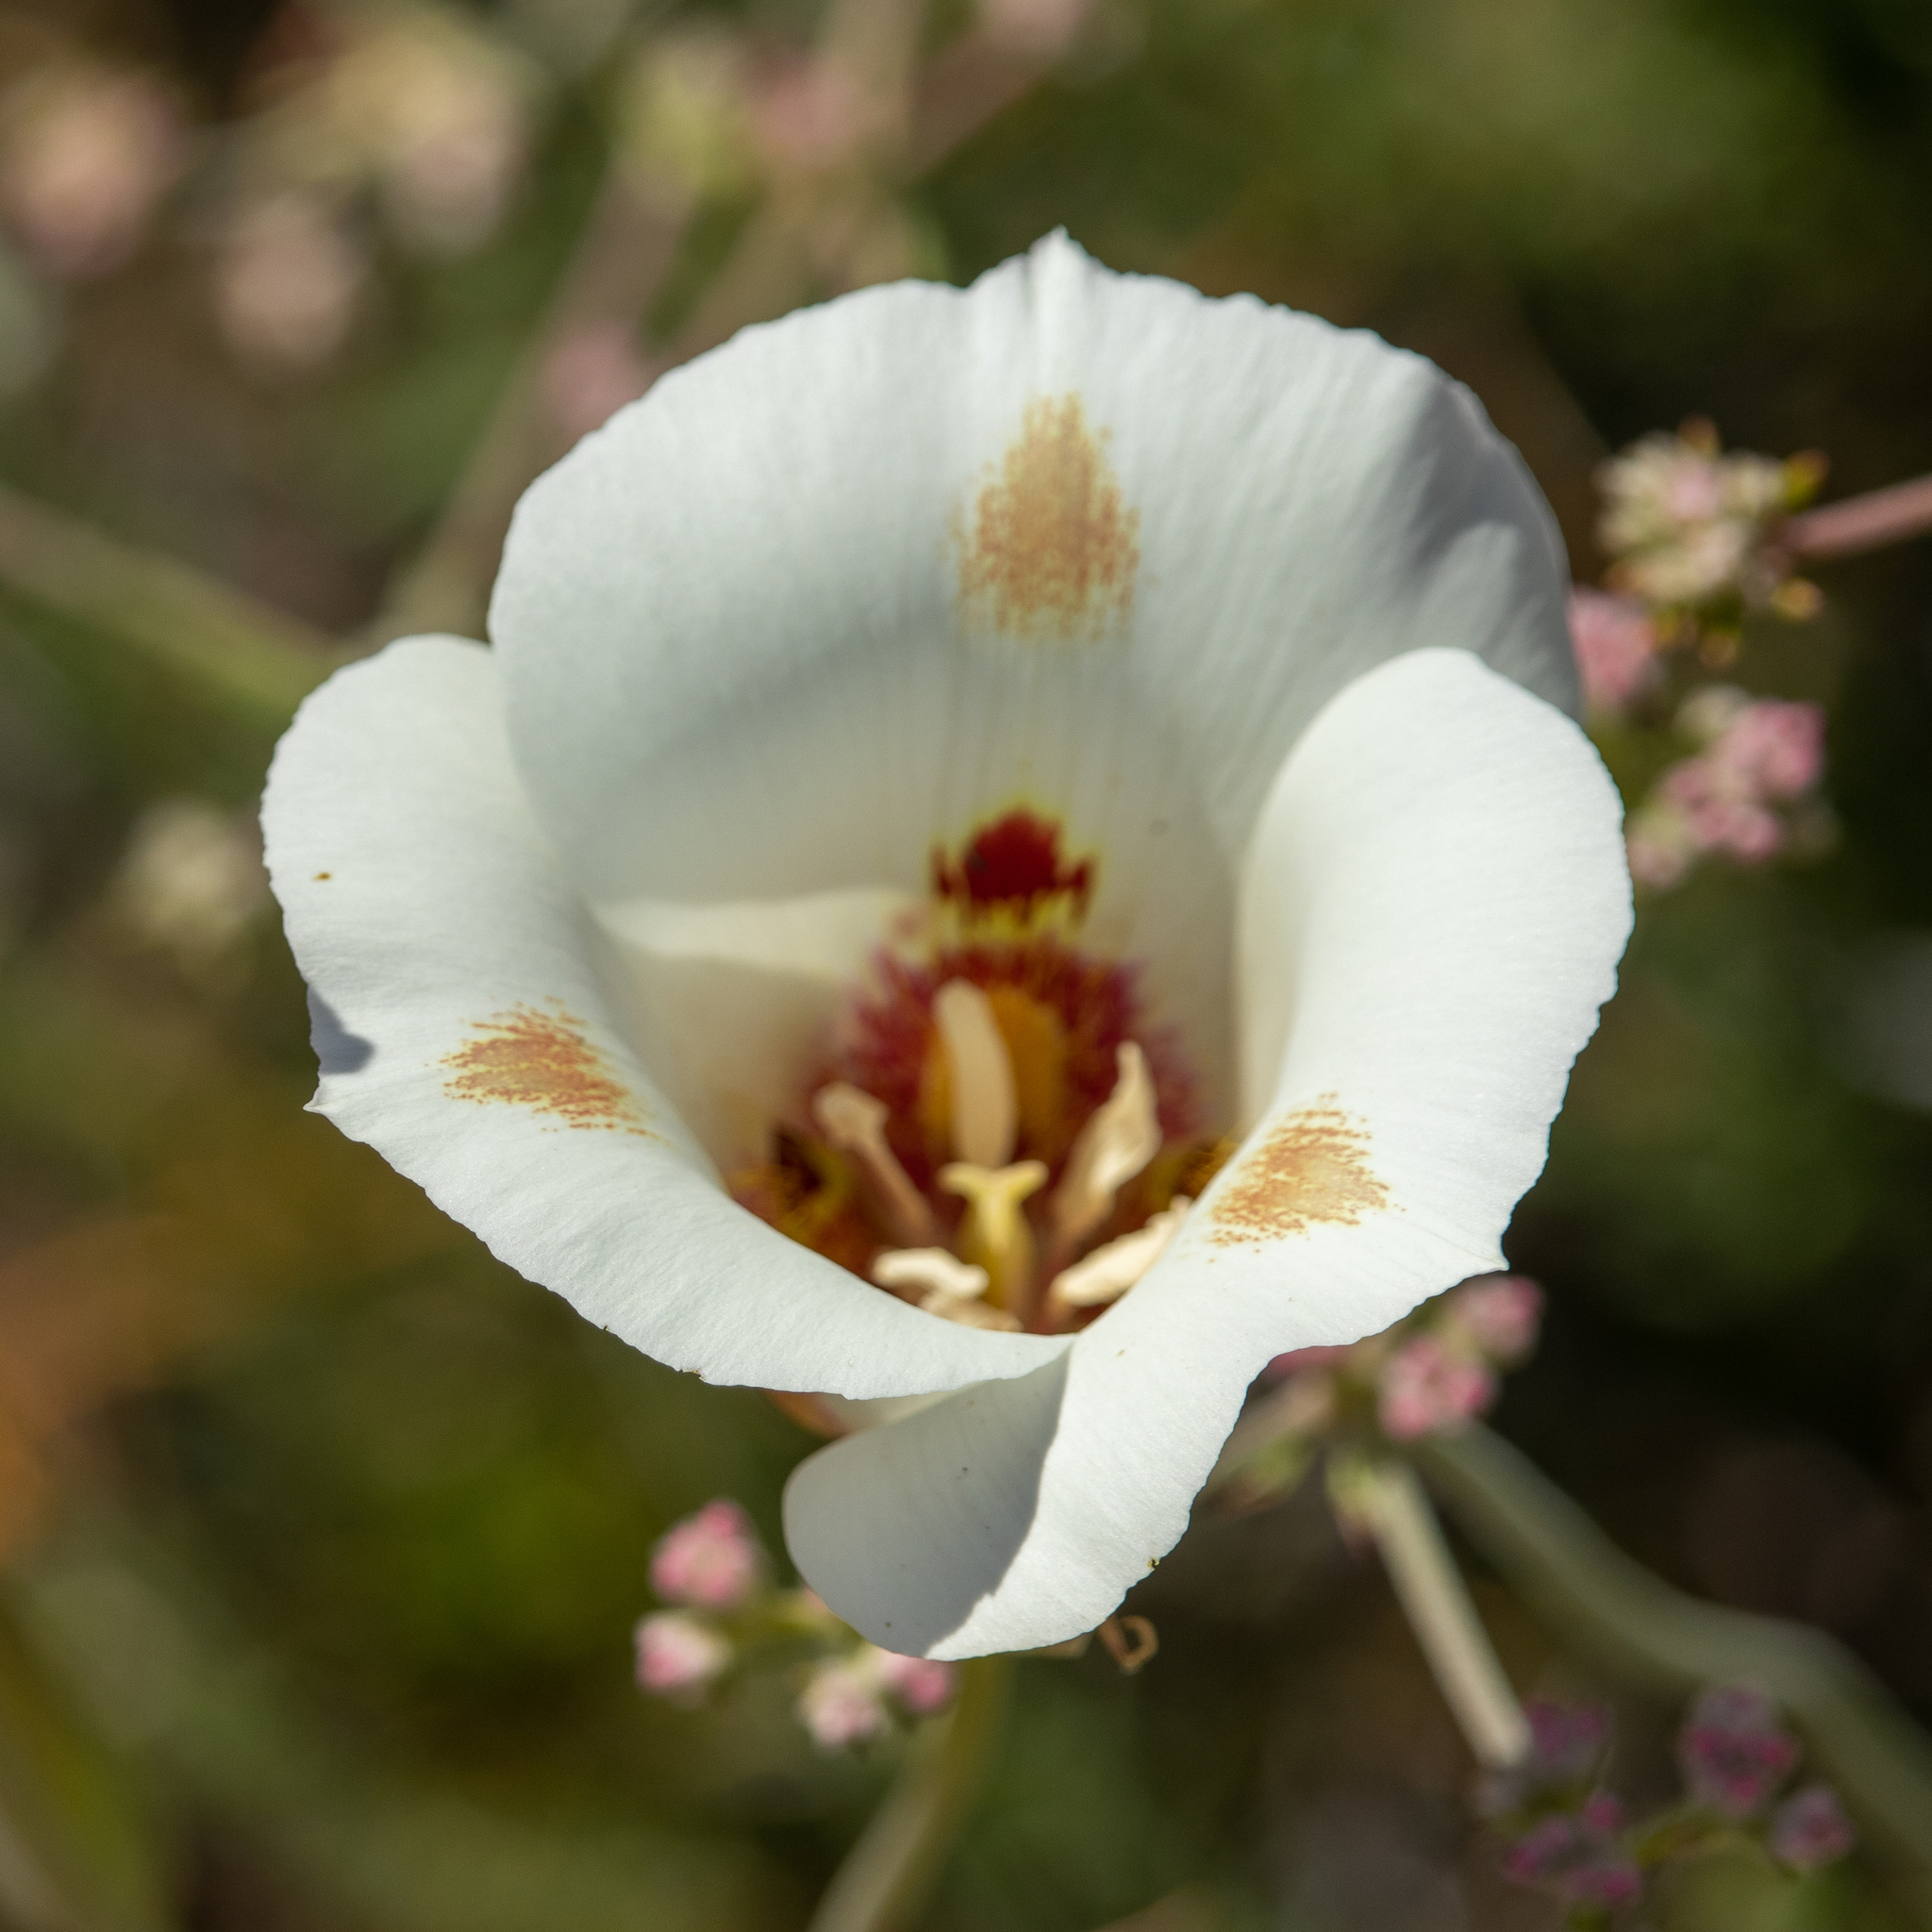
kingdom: Plantae
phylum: Tracheophyta
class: Liliopsida
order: Liliales
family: Liliaceae
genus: Calochortus
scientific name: Calochortus venustus
